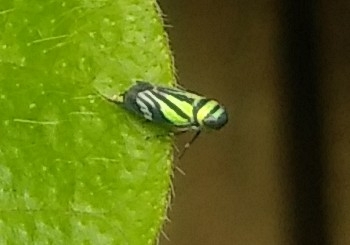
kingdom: Animalia
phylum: Arthropoda
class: Insecta
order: Hemiptera
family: Cicadellidae
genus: Stirellus
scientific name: Stirellus bicolor
